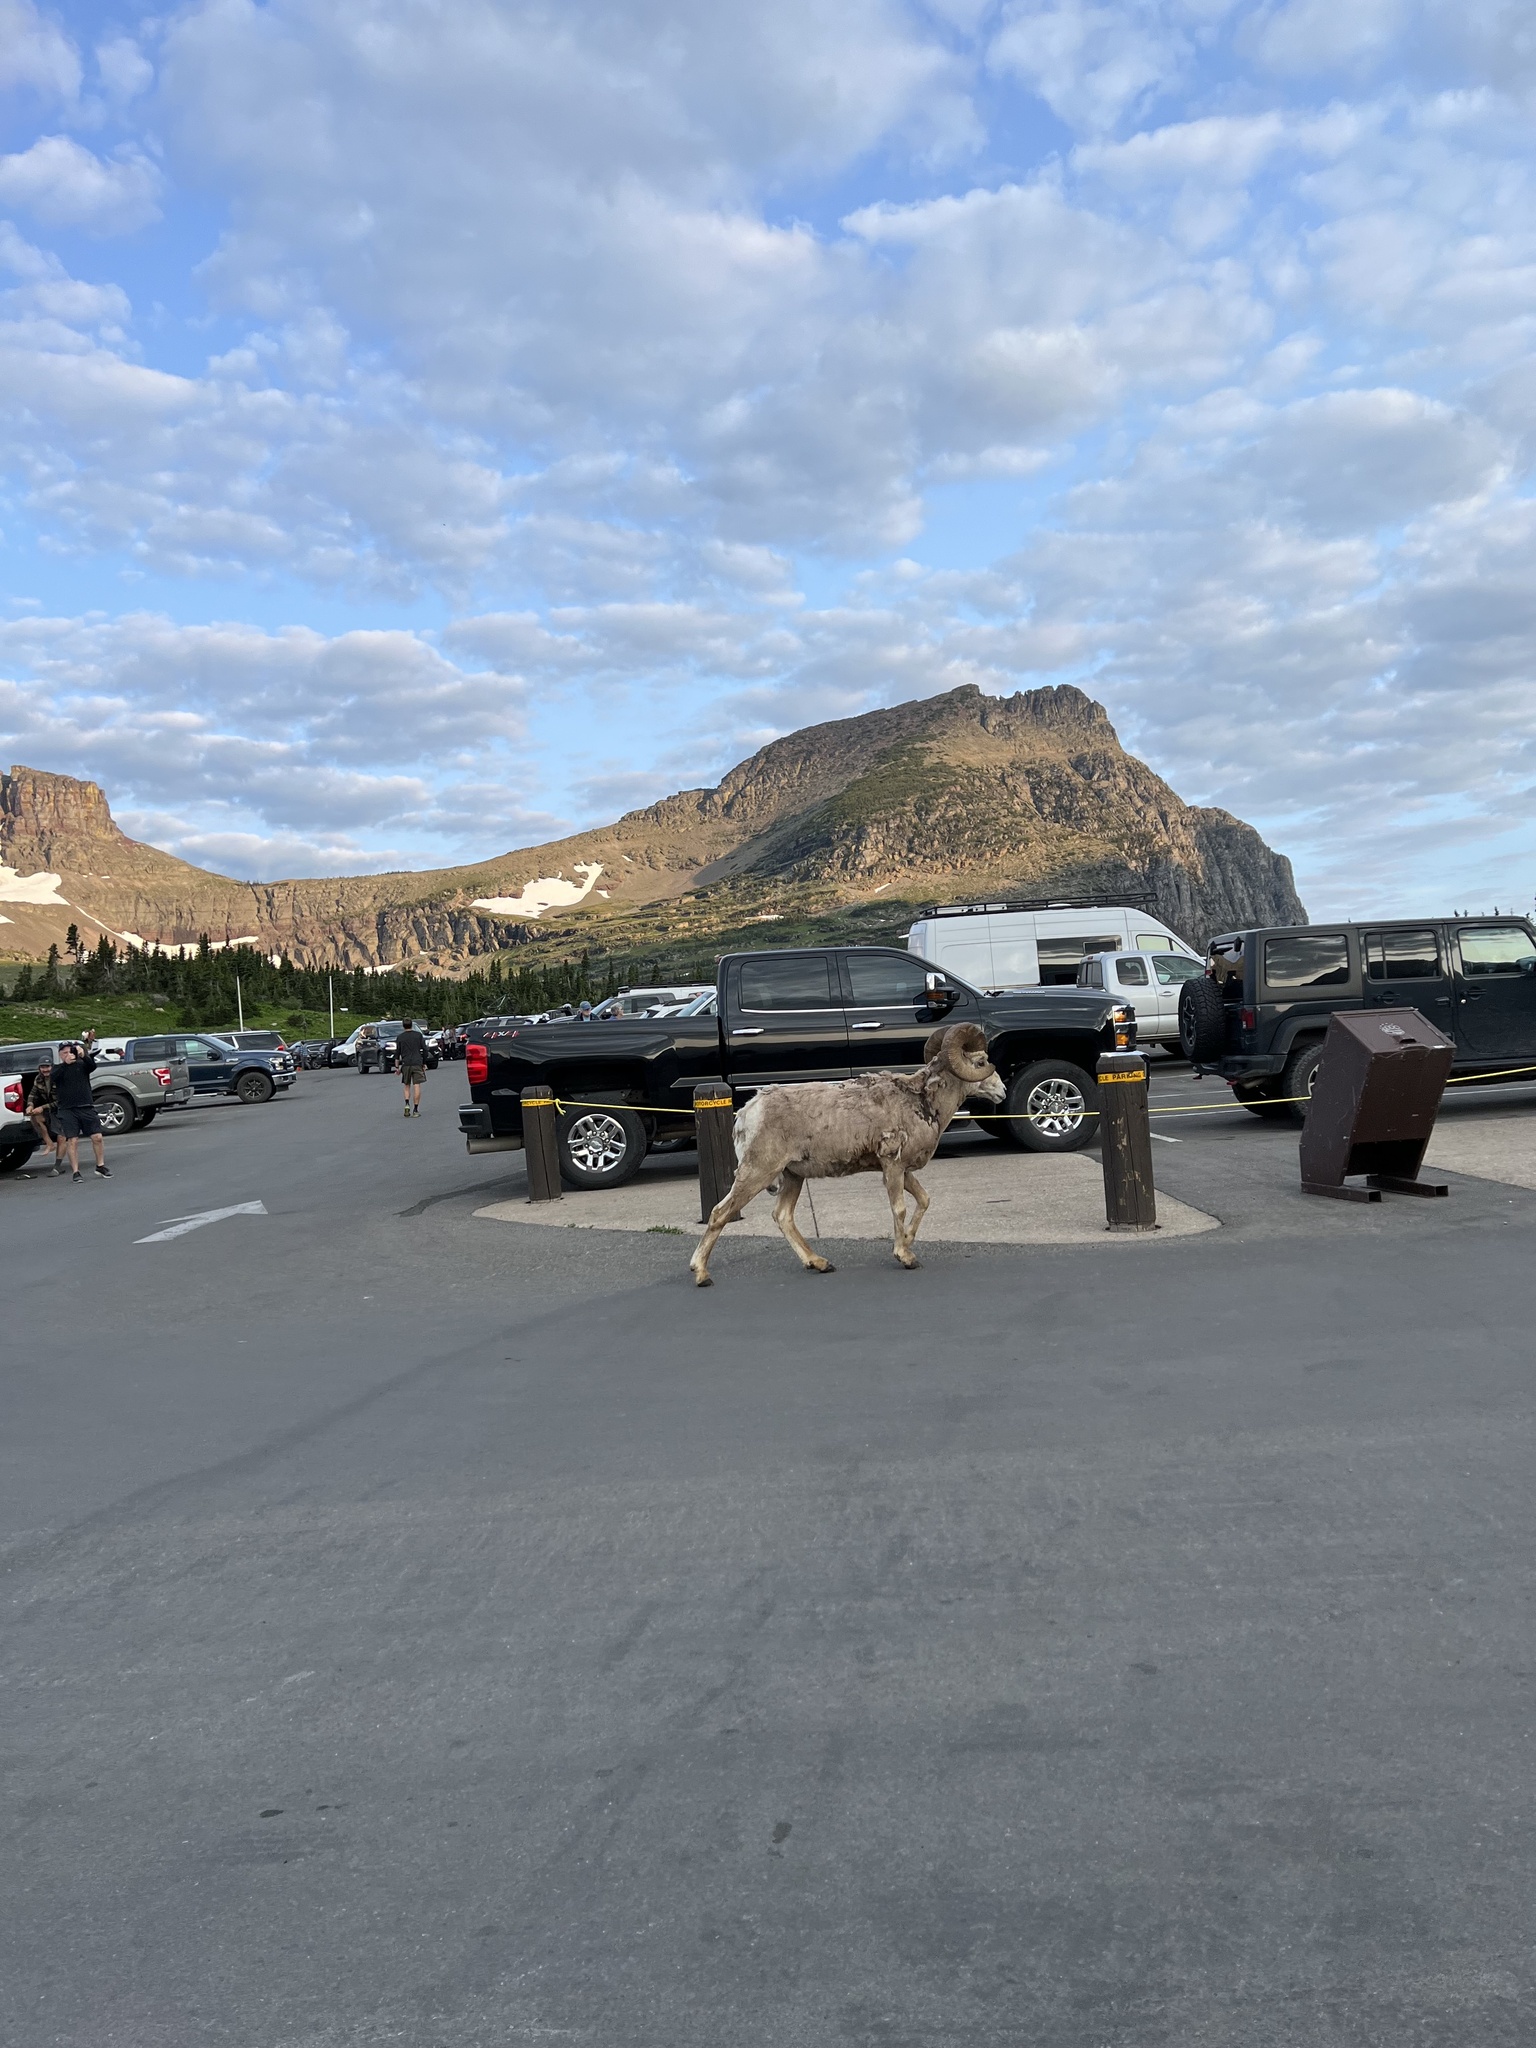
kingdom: Animalia
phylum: Chordata
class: Mammalia
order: Artiodactyla
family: Bovidae
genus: Ovis
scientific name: Ovis canadensis
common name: Bighorn sheep
